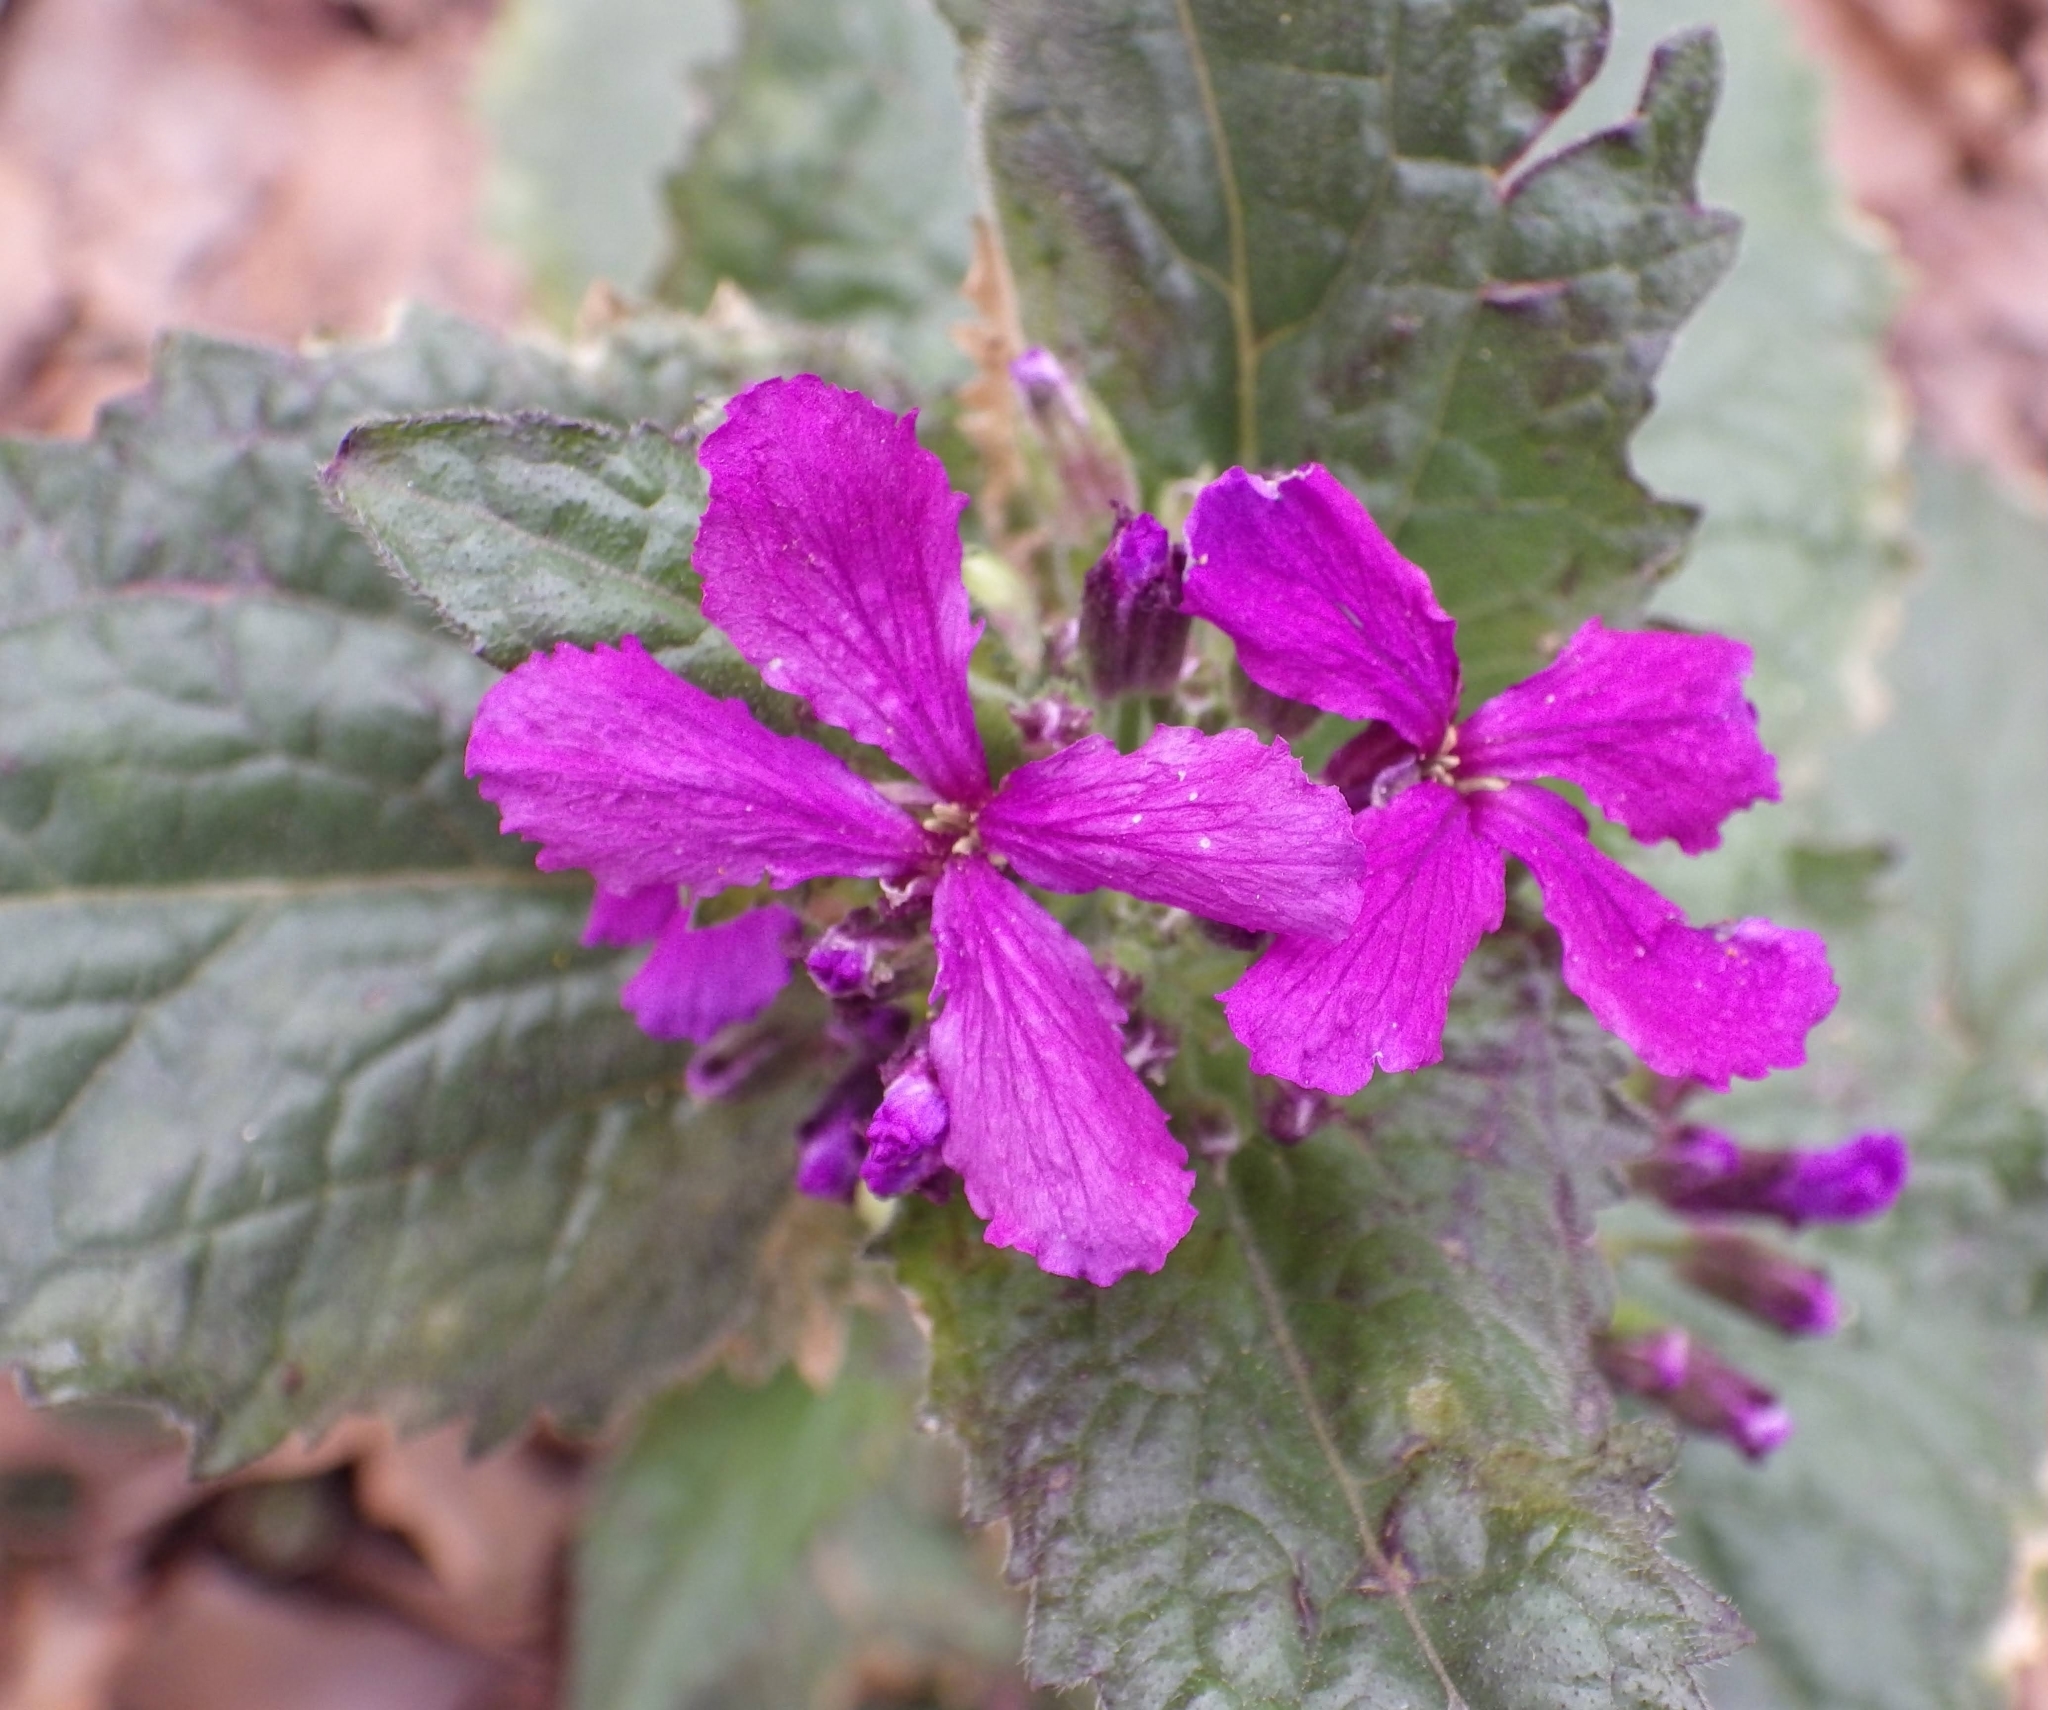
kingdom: Plantae
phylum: Tracheophyta
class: Magnoliopsida
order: Brassicales
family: Brassicaceae
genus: Lunaria
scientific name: Lunaria annua
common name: Honesty
